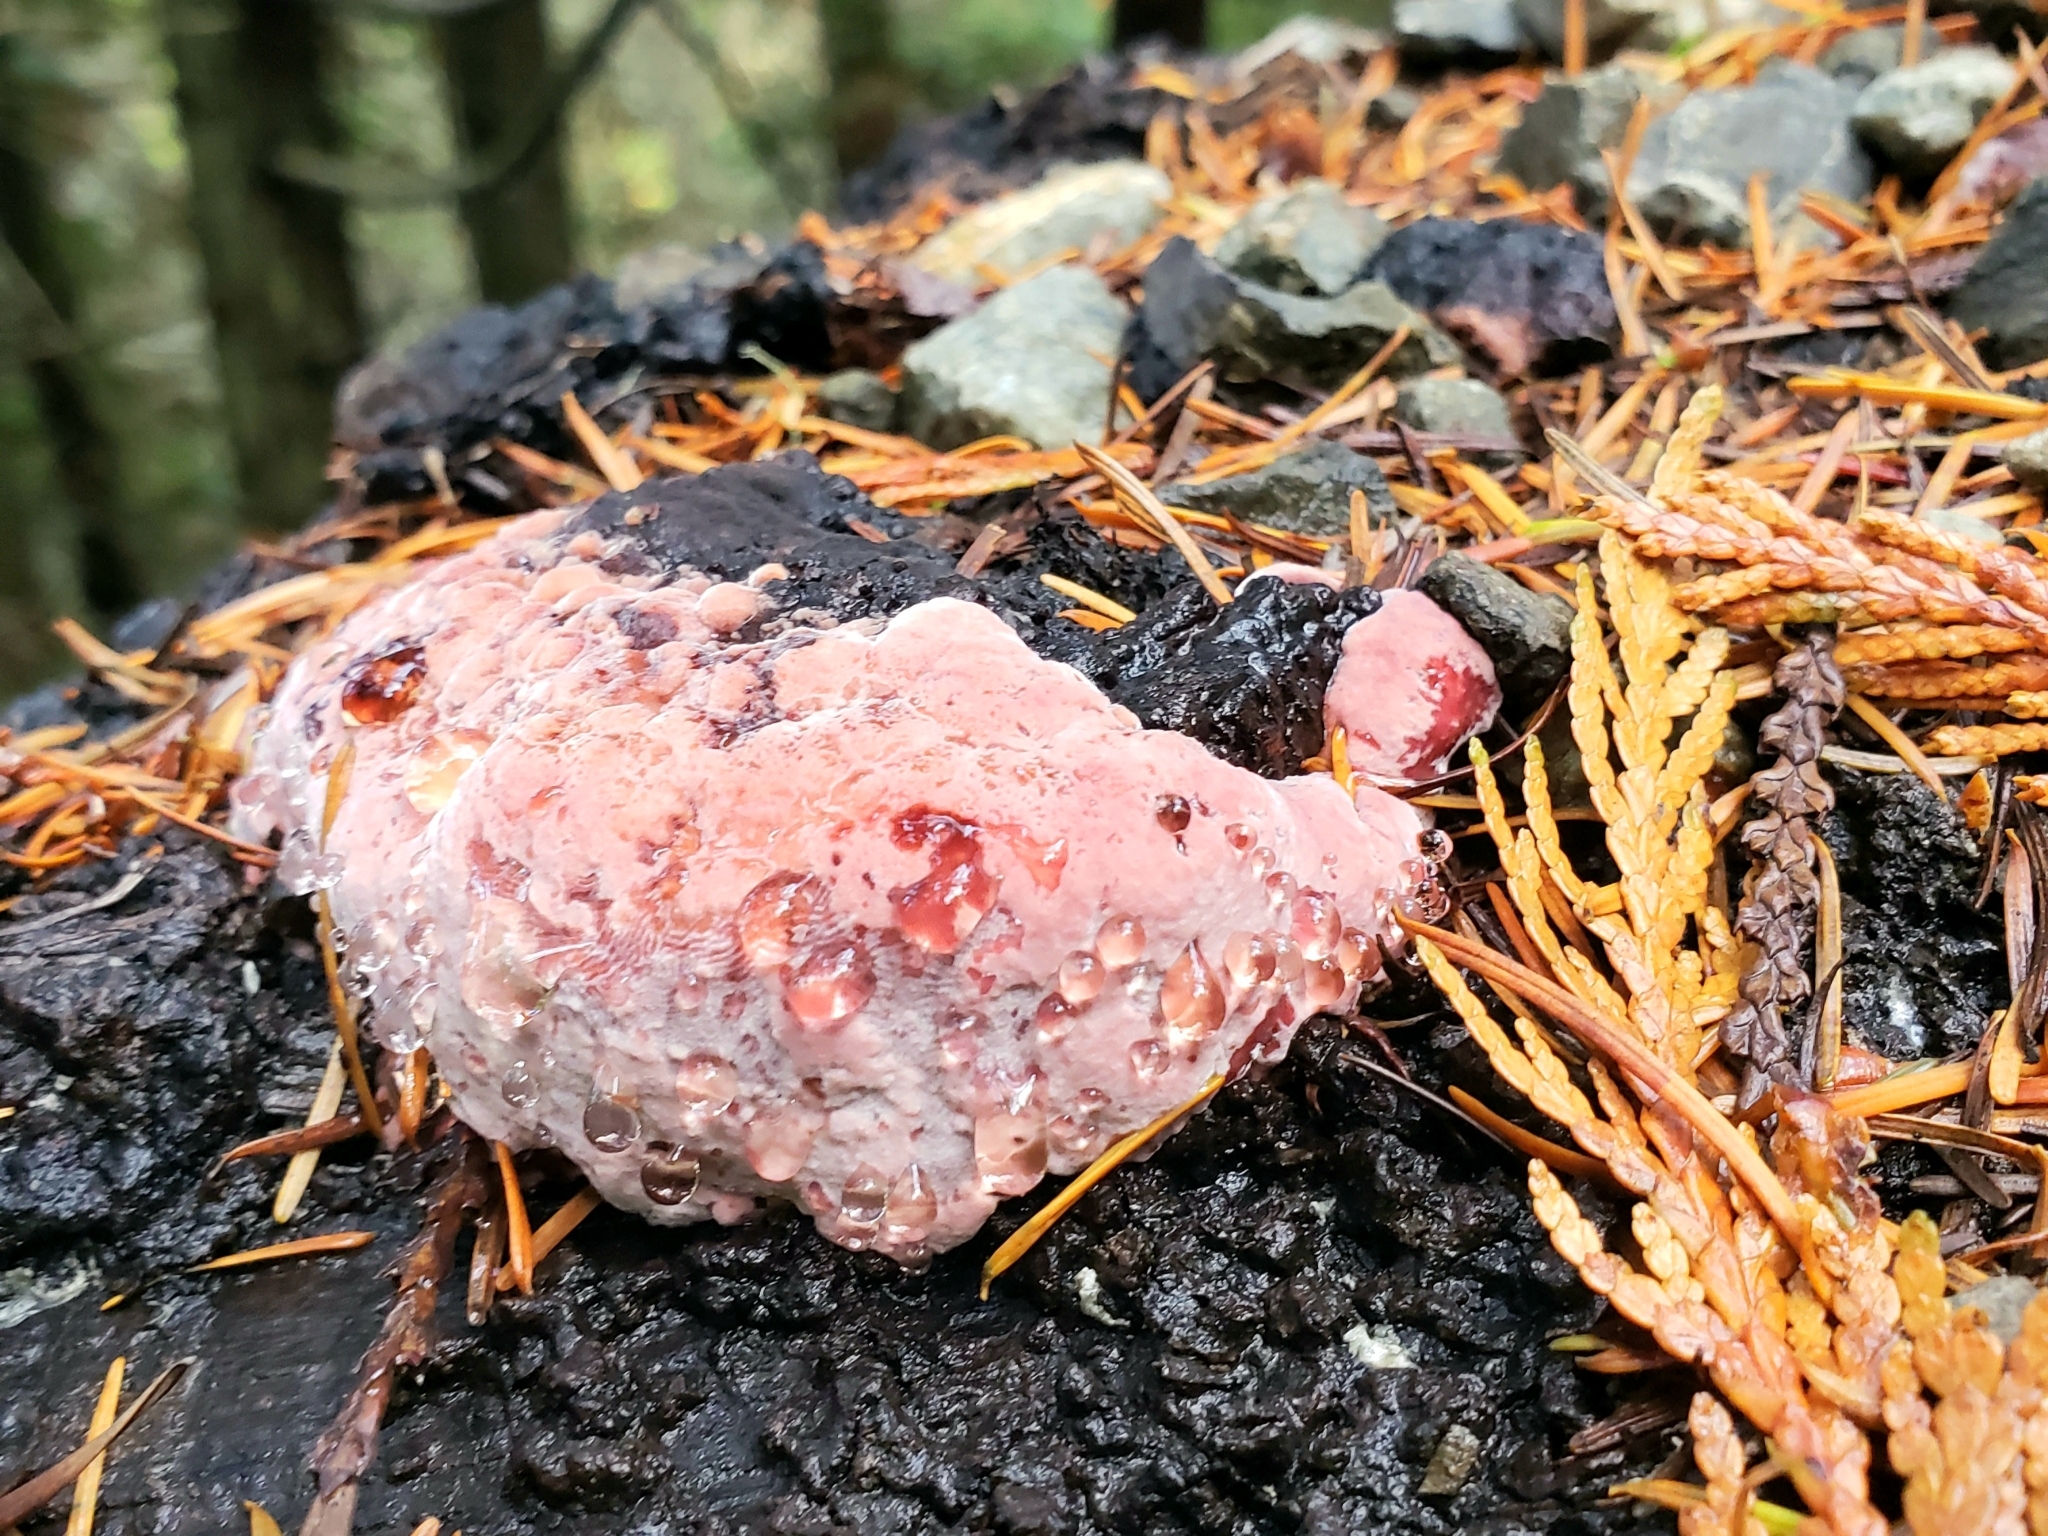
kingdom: Fungi
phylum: Basidiomycota
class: Agaricomycetes
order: Polyporales
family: Fomitopsidaceae
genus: Rhodofomes
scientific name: Rhodofomes cajanderi
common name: Rosy conk
